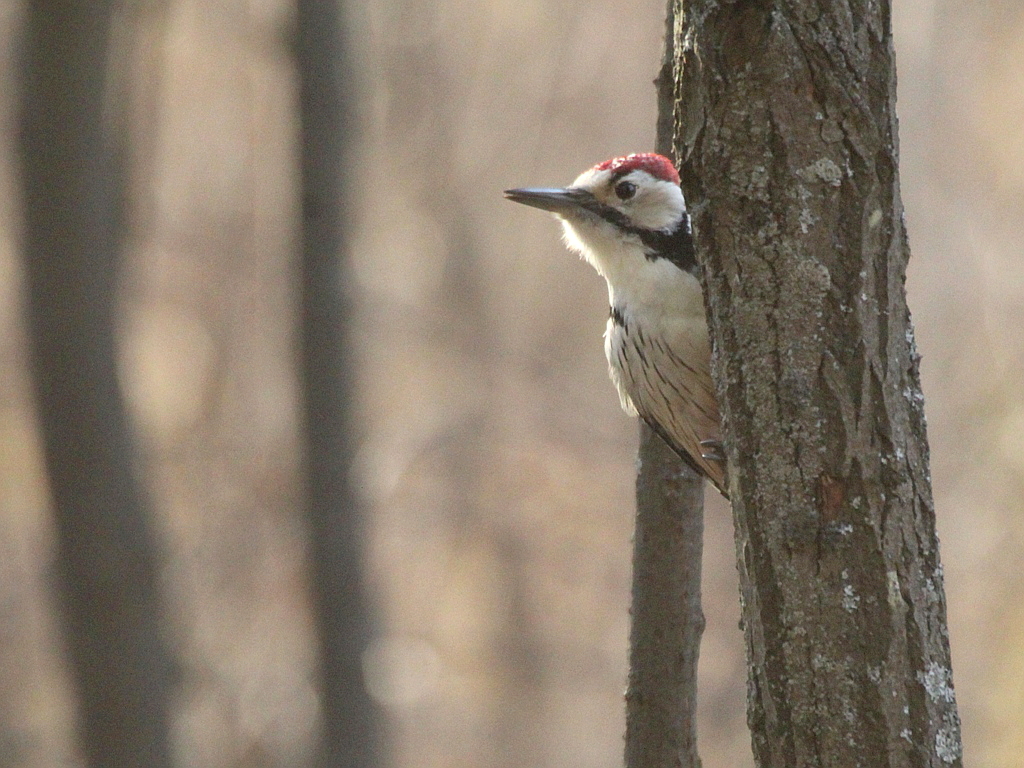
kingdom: Animalia
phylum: Chordata
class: Aves
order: Piciformes
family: Picidae
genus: Dendrocopos
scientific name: Dendrocopos leucotos
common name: White-backed woodpecker
